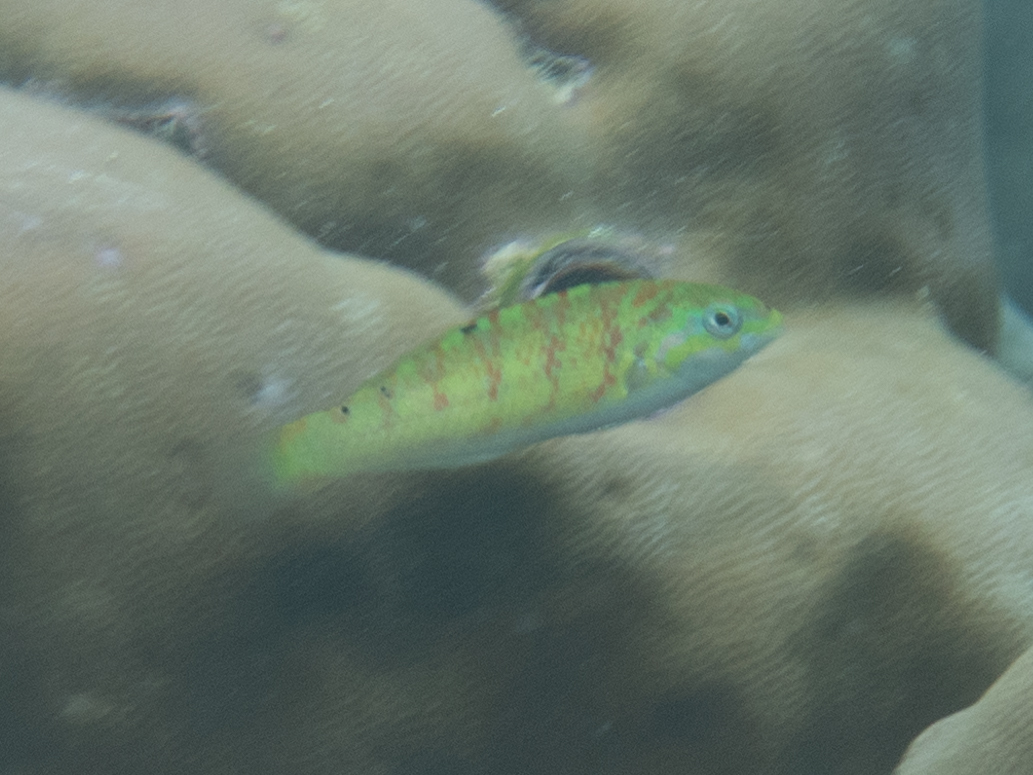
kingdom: Animalia
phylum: Chordata
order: Perciformes
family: Labridae
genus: Thalassoma
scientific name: Thalassoma hardwicke
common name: Sixbar wrasse
